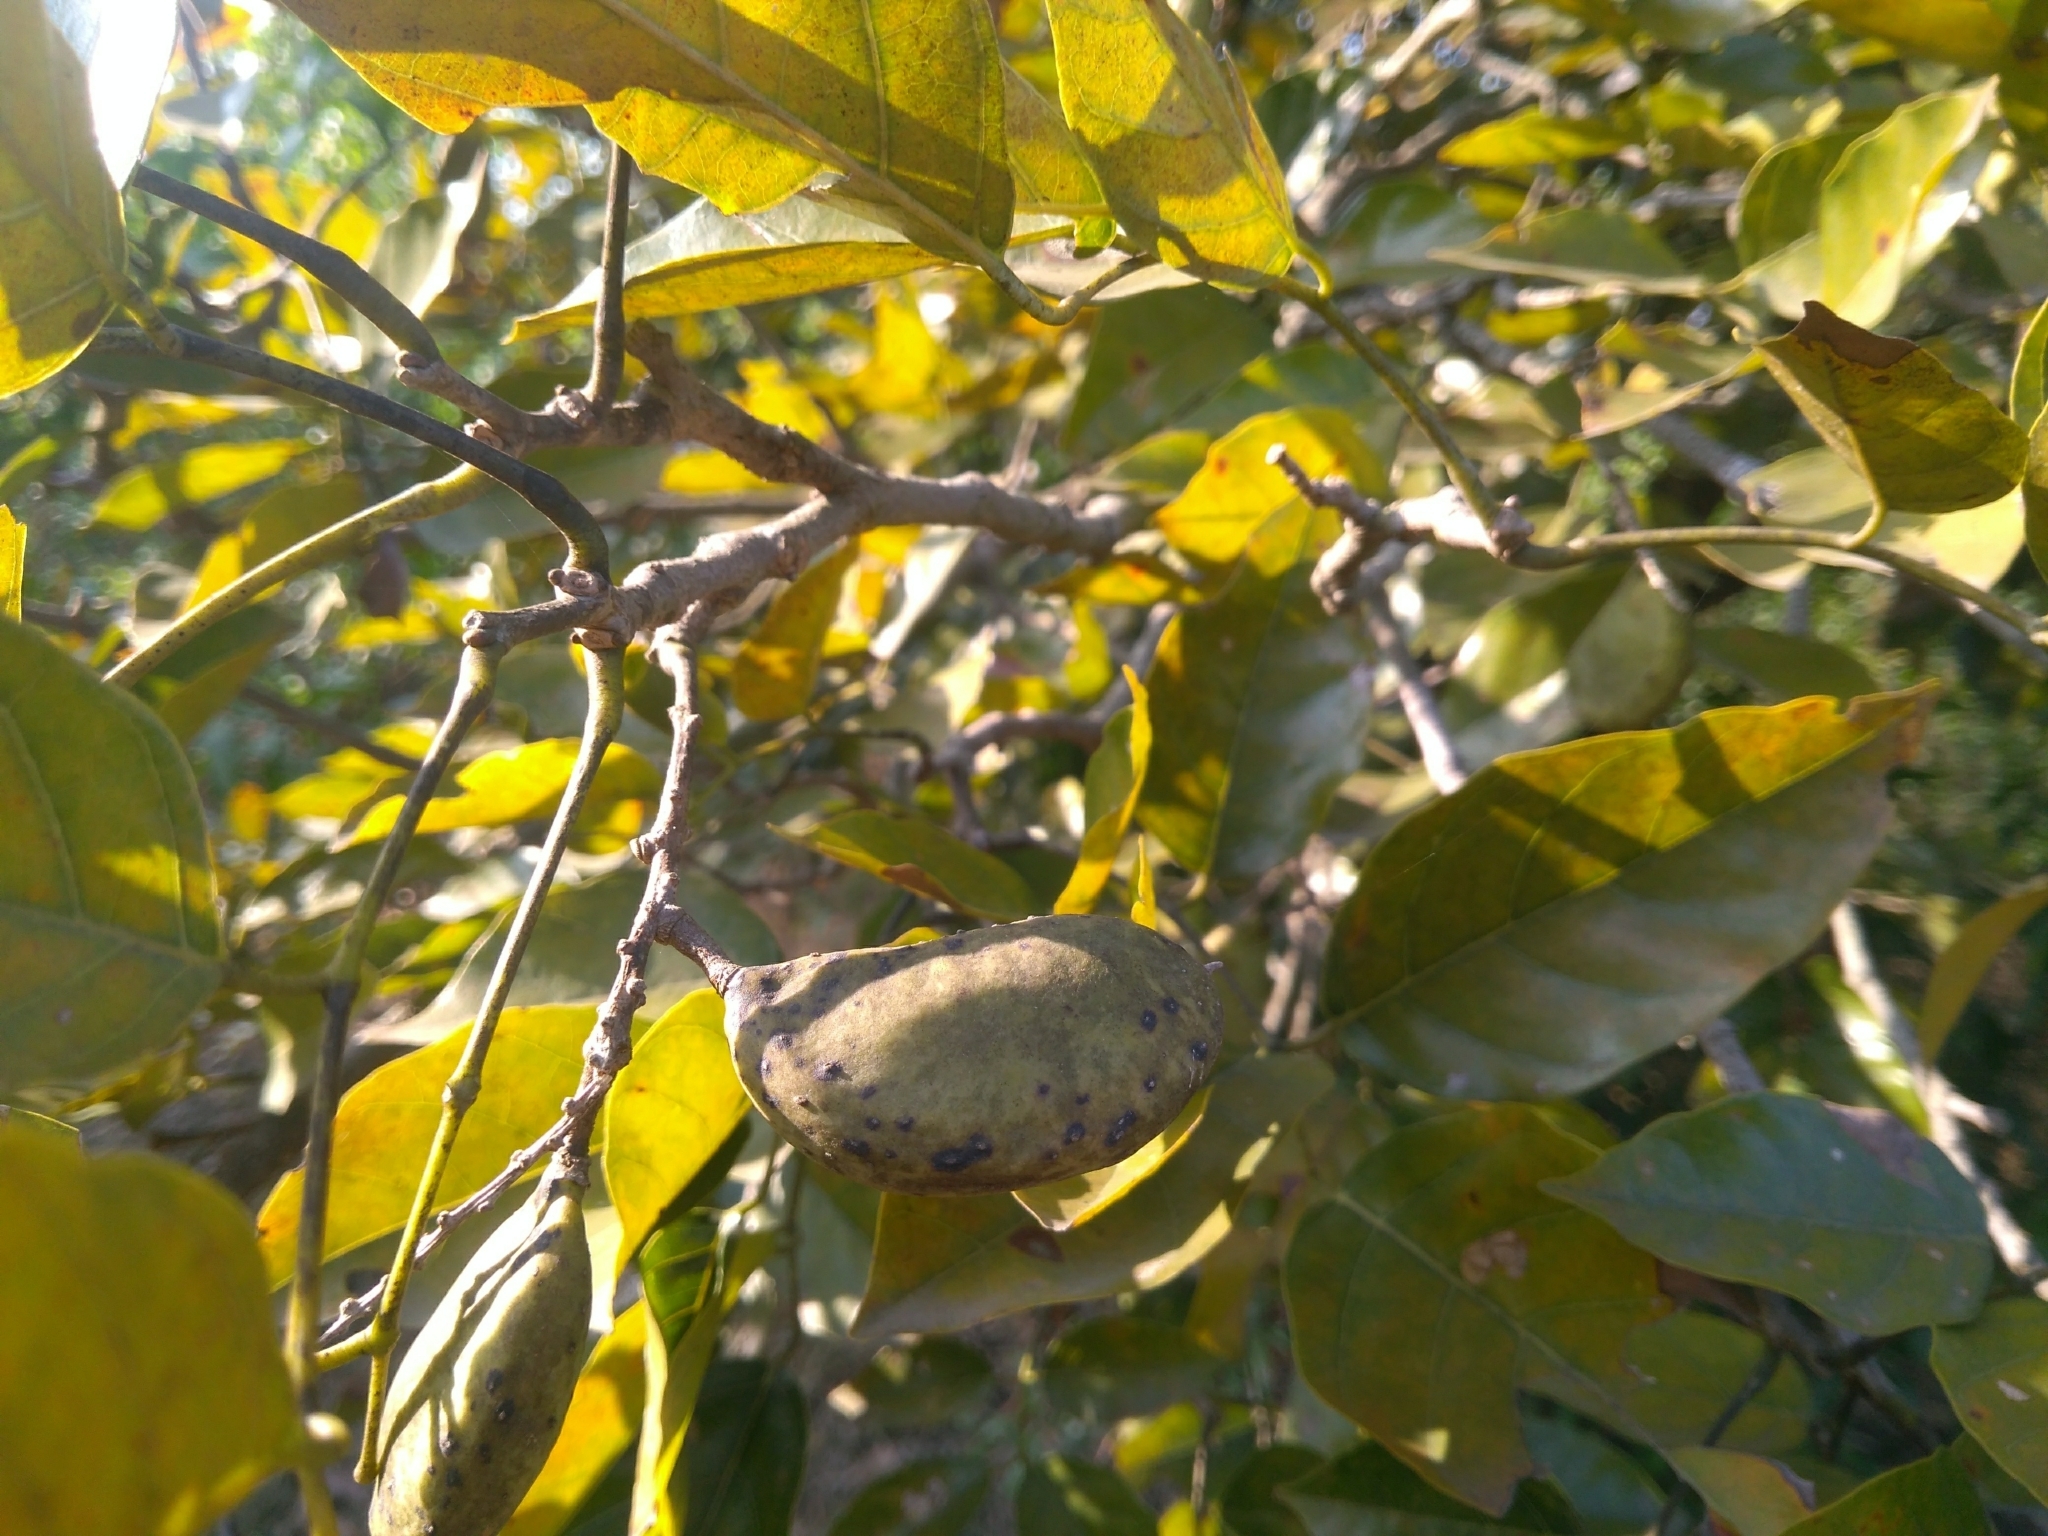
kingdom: Plantae
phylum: Tracheophyta
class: Magnoliopsida
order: Fabales
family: Fabaceae
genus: Pongamia
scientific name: Pongamia pinnata
